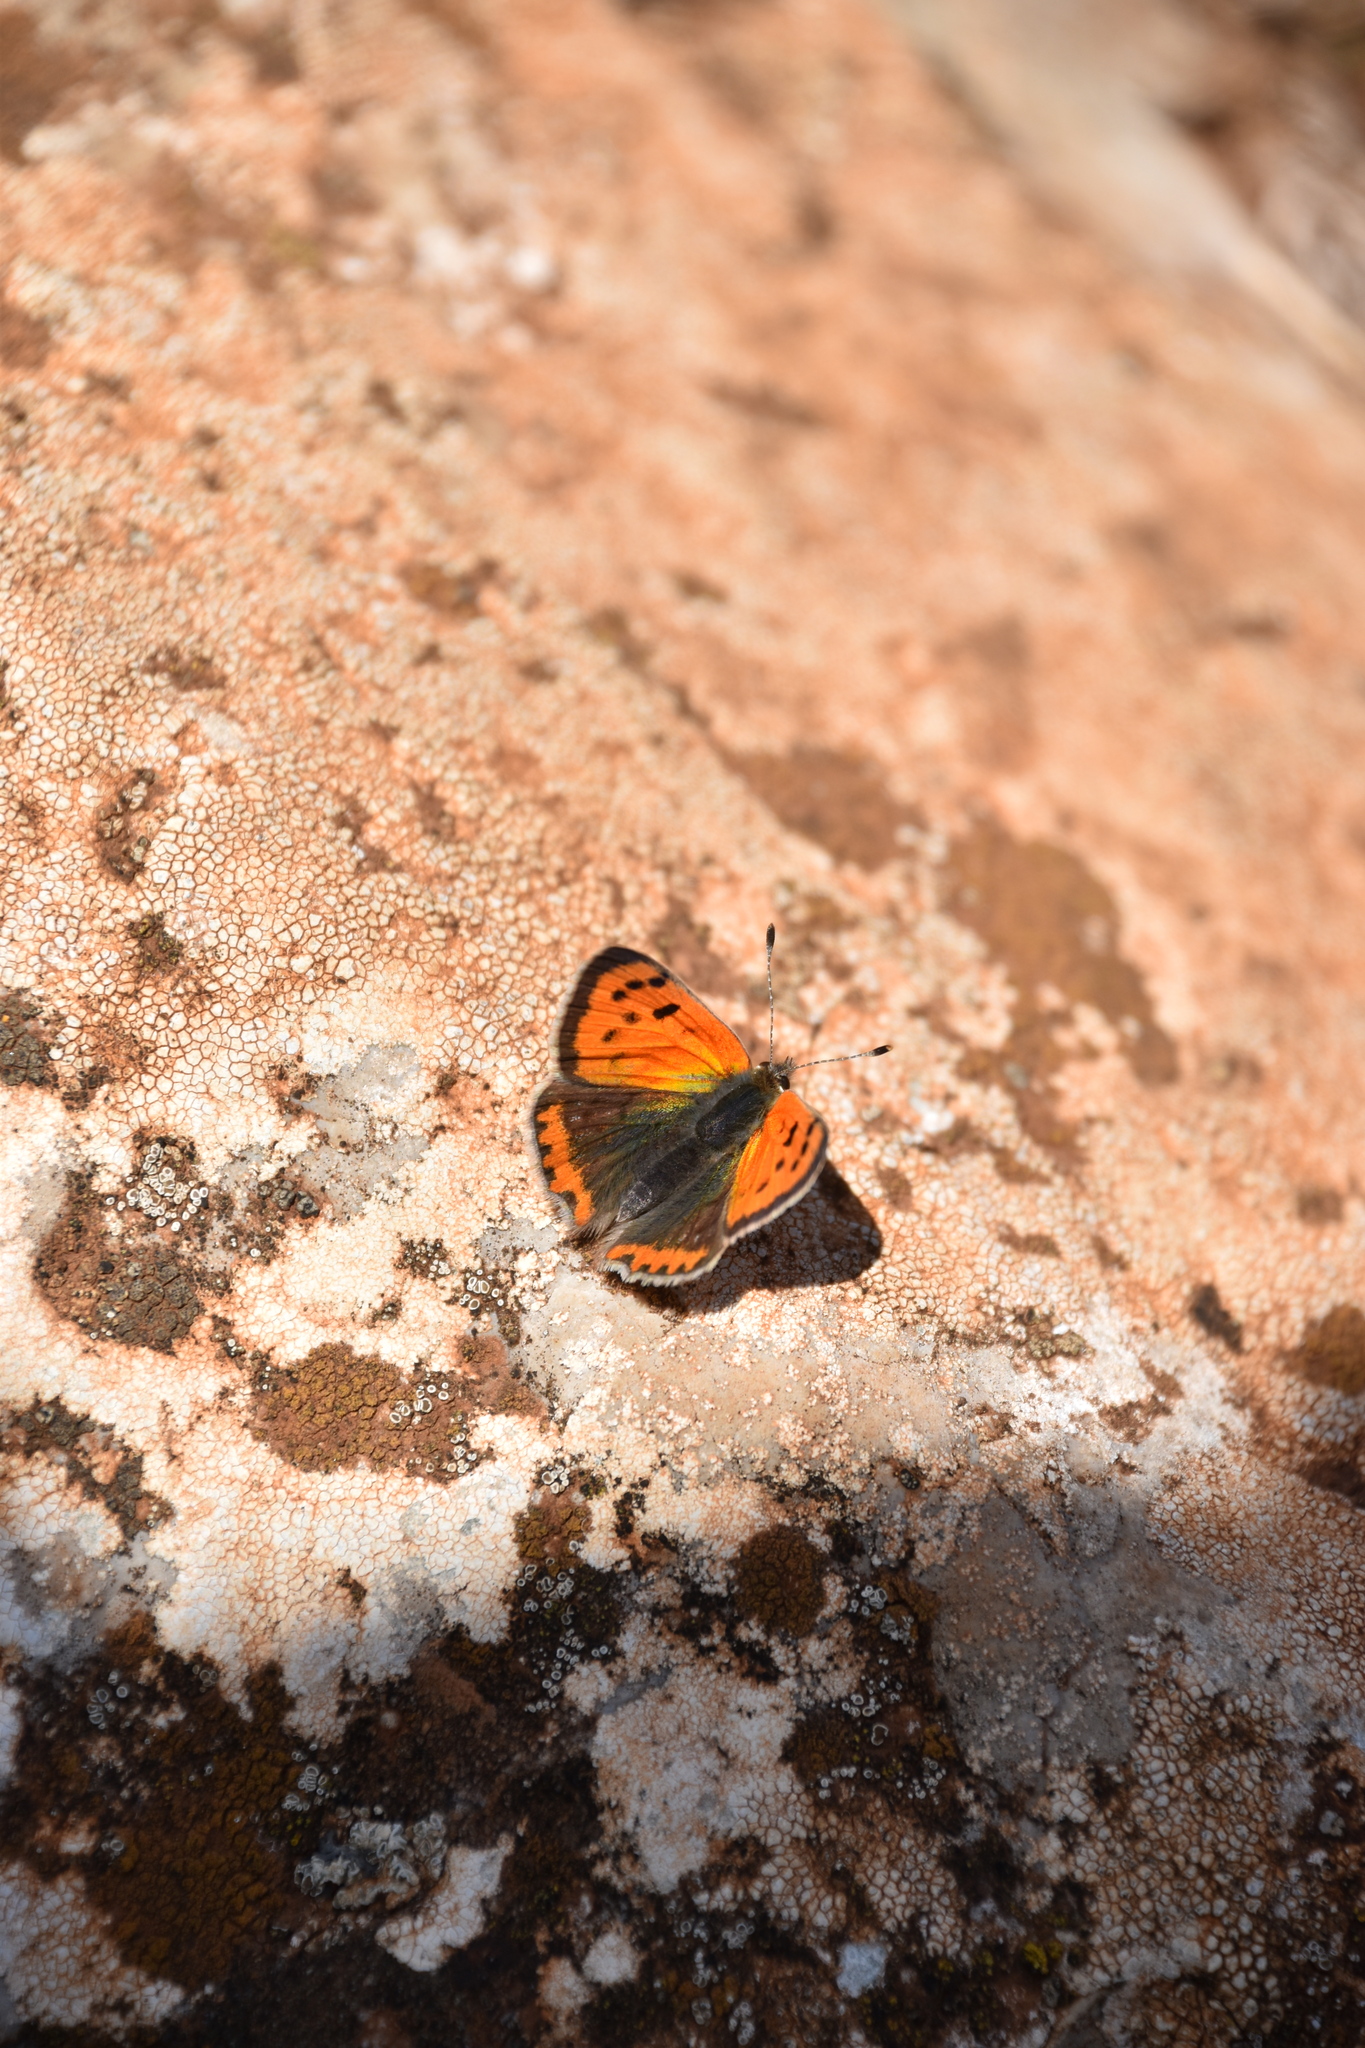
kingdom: Animalia
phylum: Arthropoda
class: Insecta
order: Lepidoptera
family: Lycaenidae
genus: Lycaena
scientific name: Lycaena phlaeas
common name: Small copper
